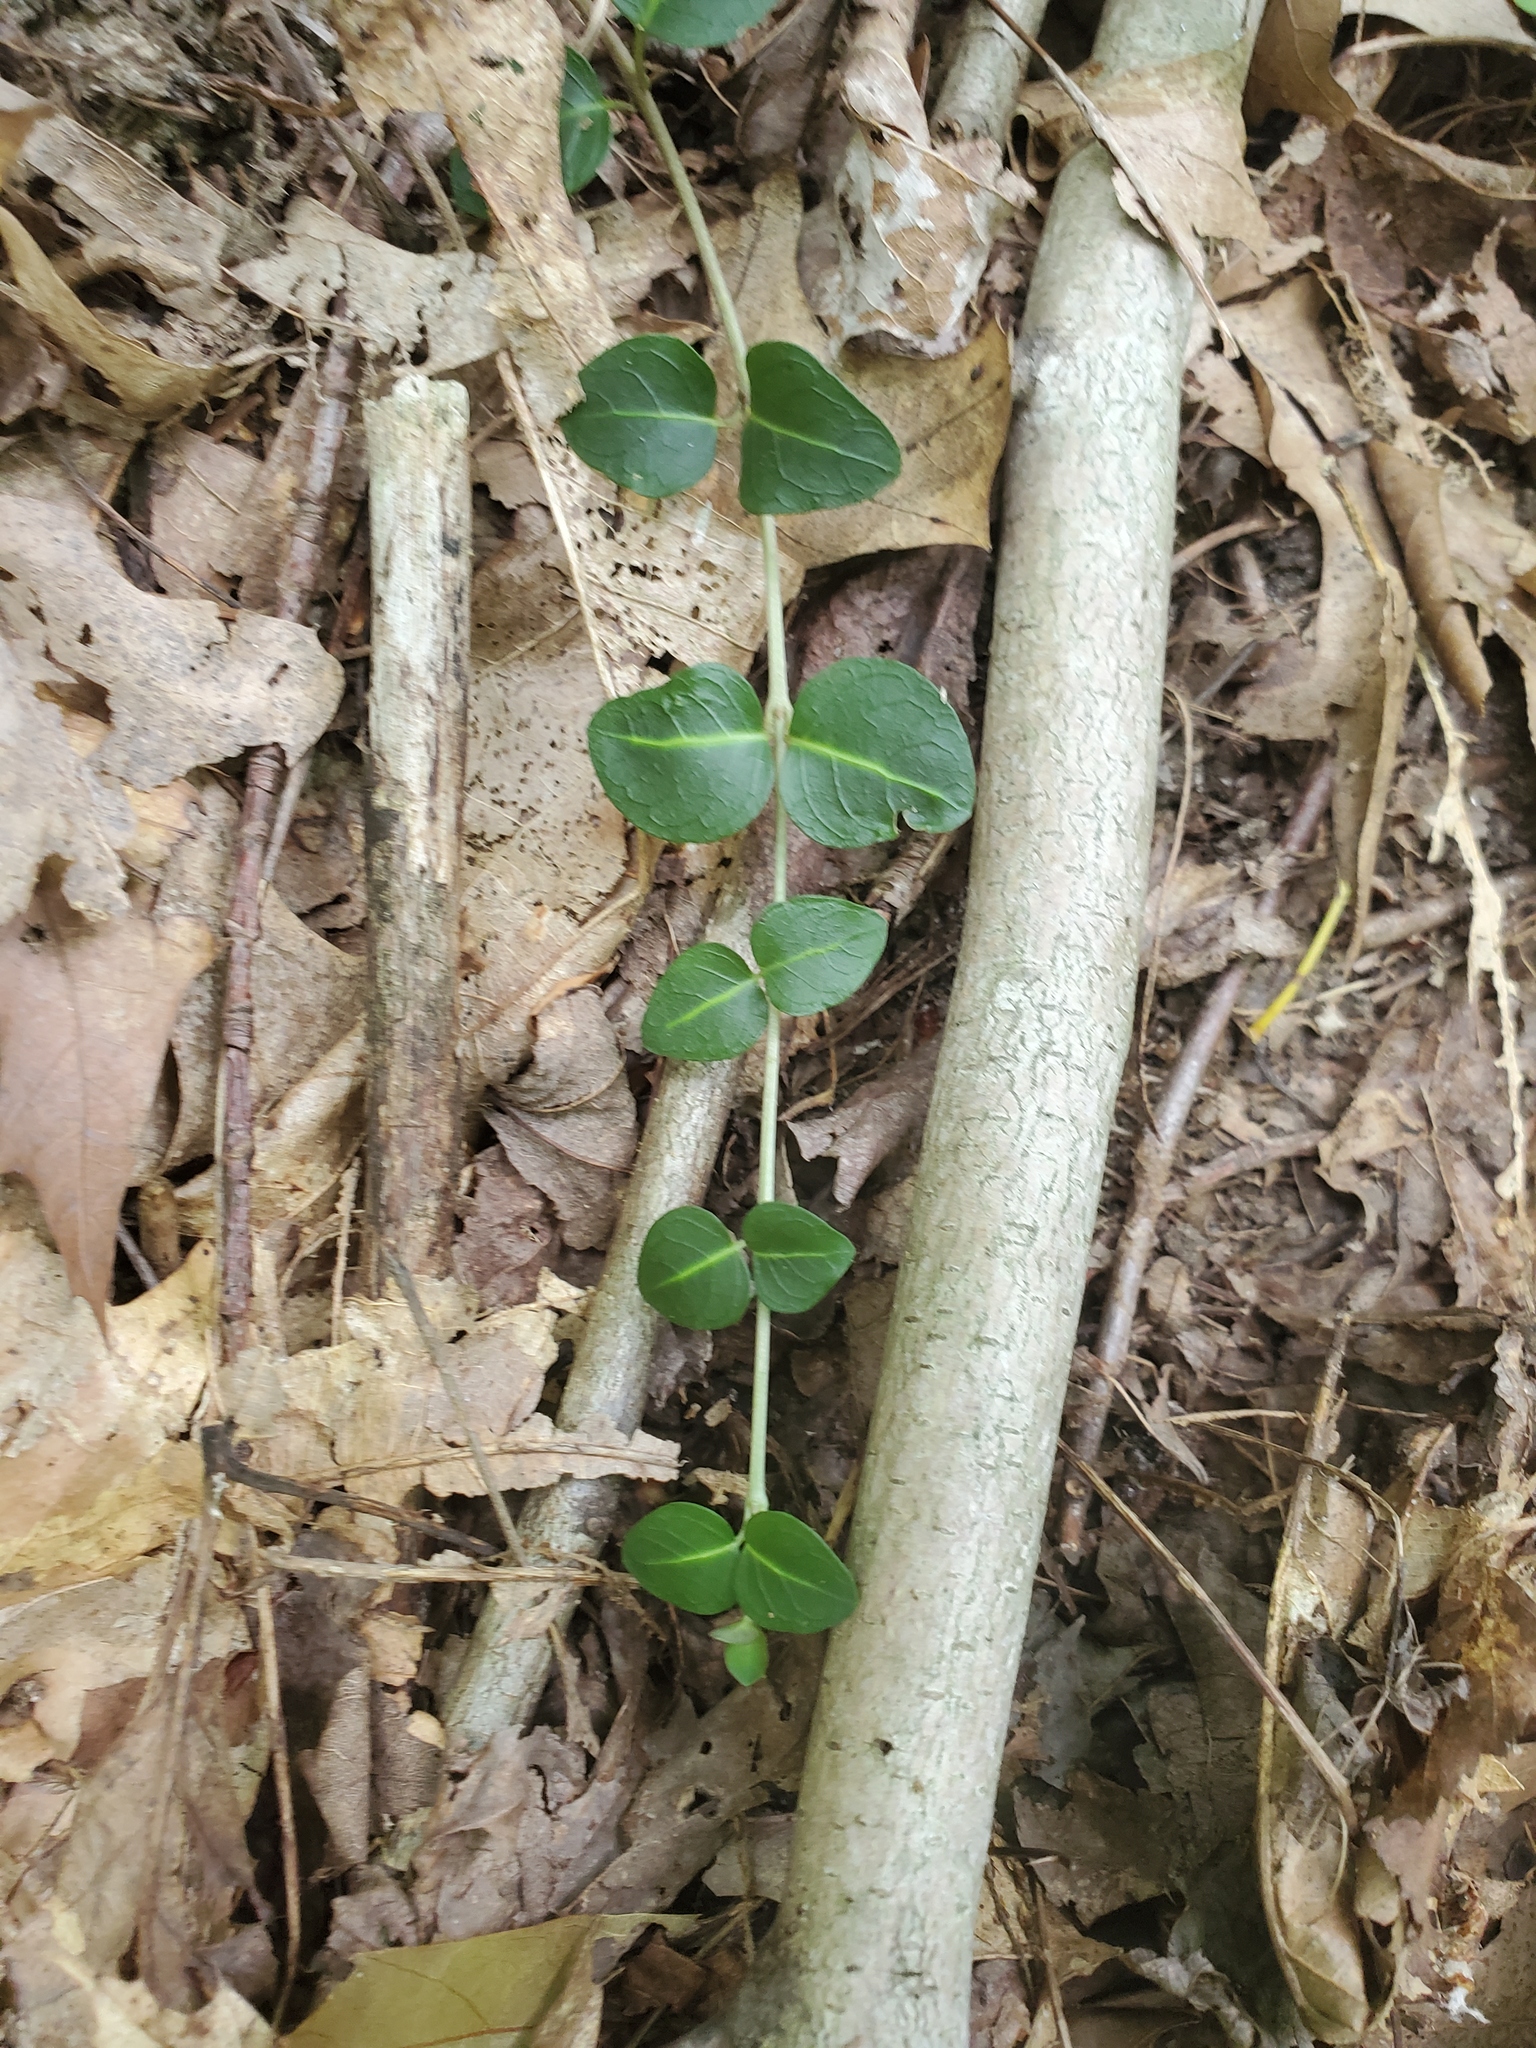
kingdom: Plantae
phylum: Tracheophyta
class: Magnoliopsida
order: Gentianales
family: Rubiaceae
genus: Mitchella
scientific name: Mitchella repens
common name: Partridge-berry
